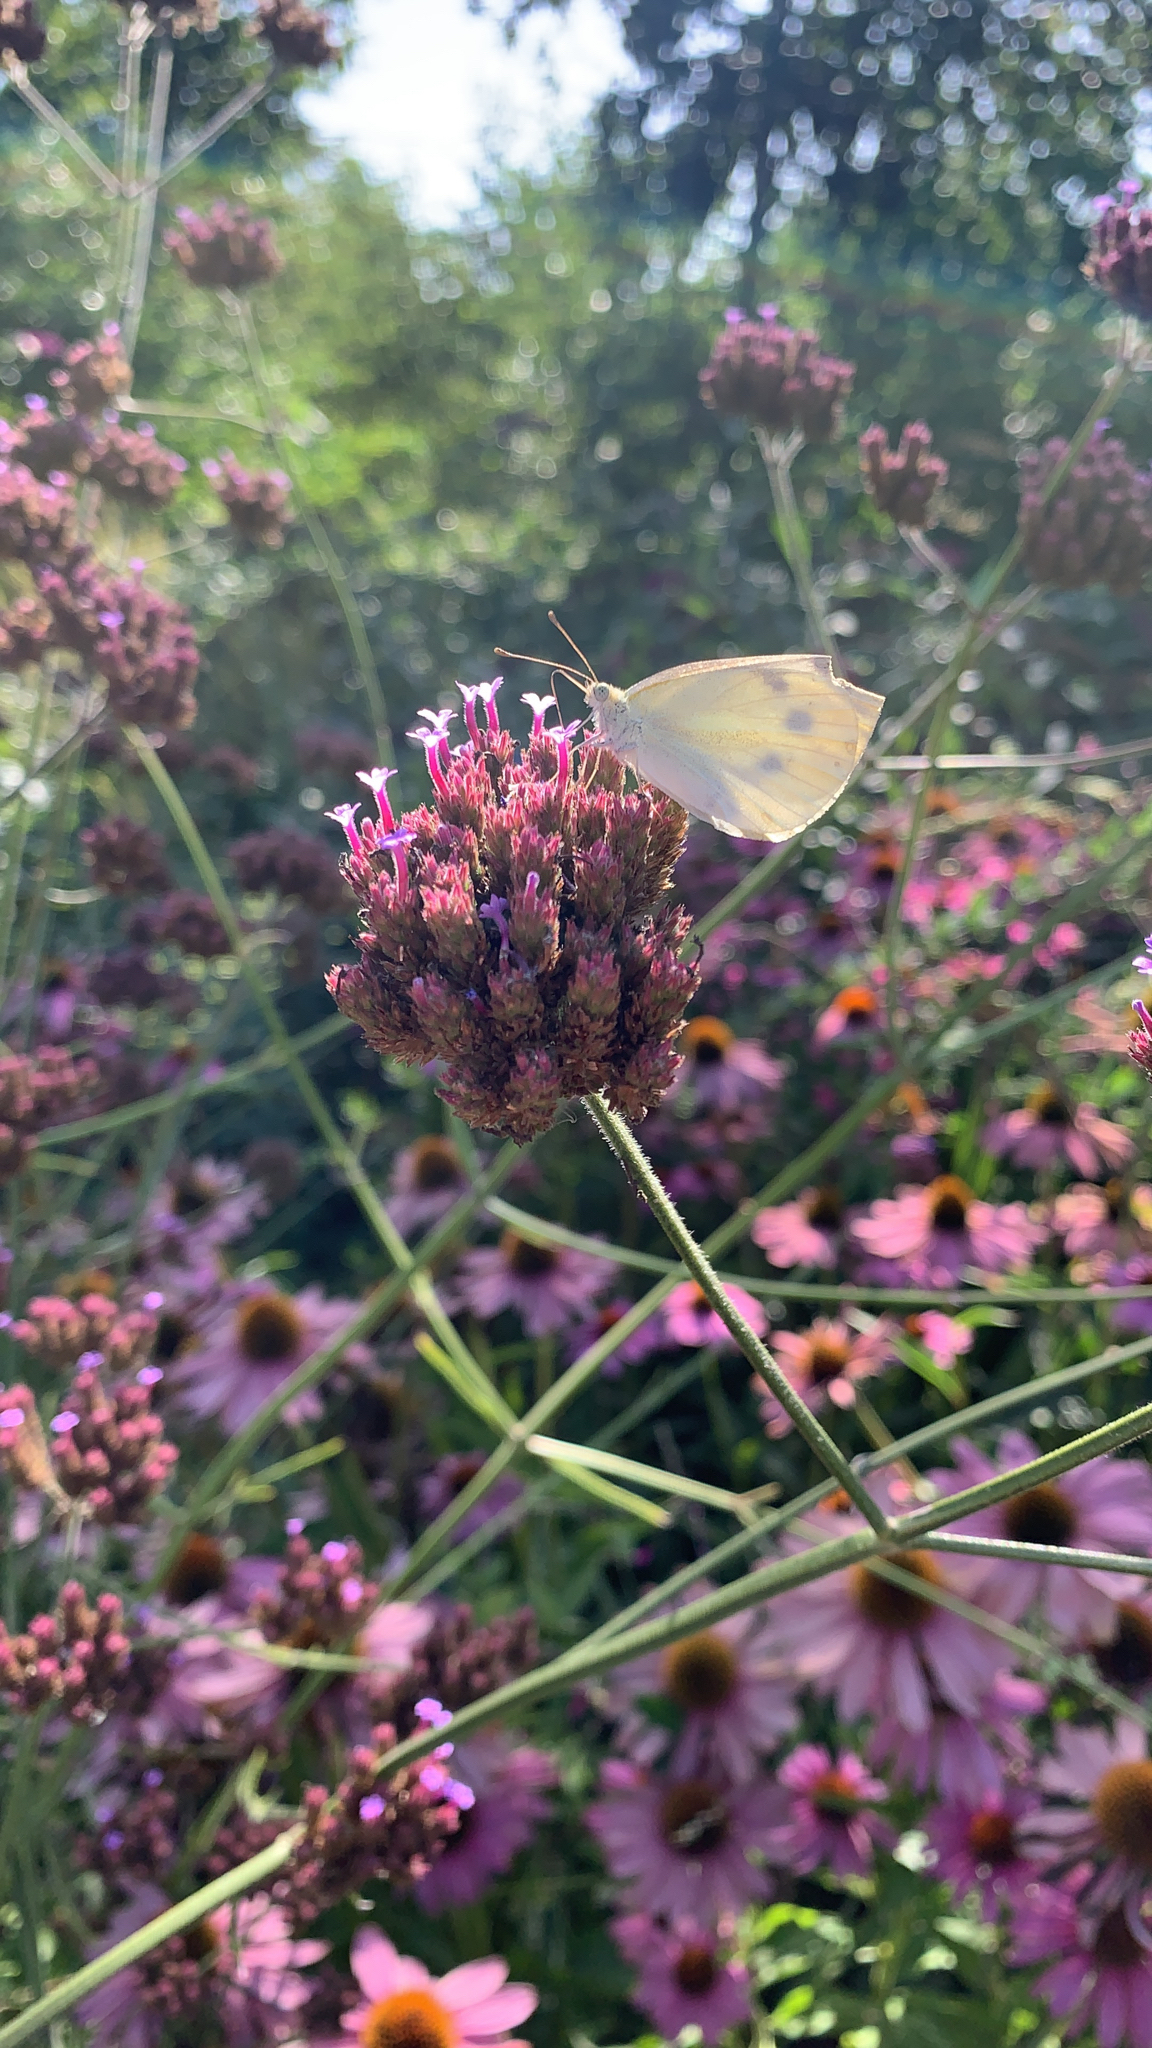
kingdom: Animalia
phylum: Arthropoda
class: Insecta
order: Lepidoptera
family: Pieridae
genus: Pieris
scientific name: Pieris rapae
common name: Small white
